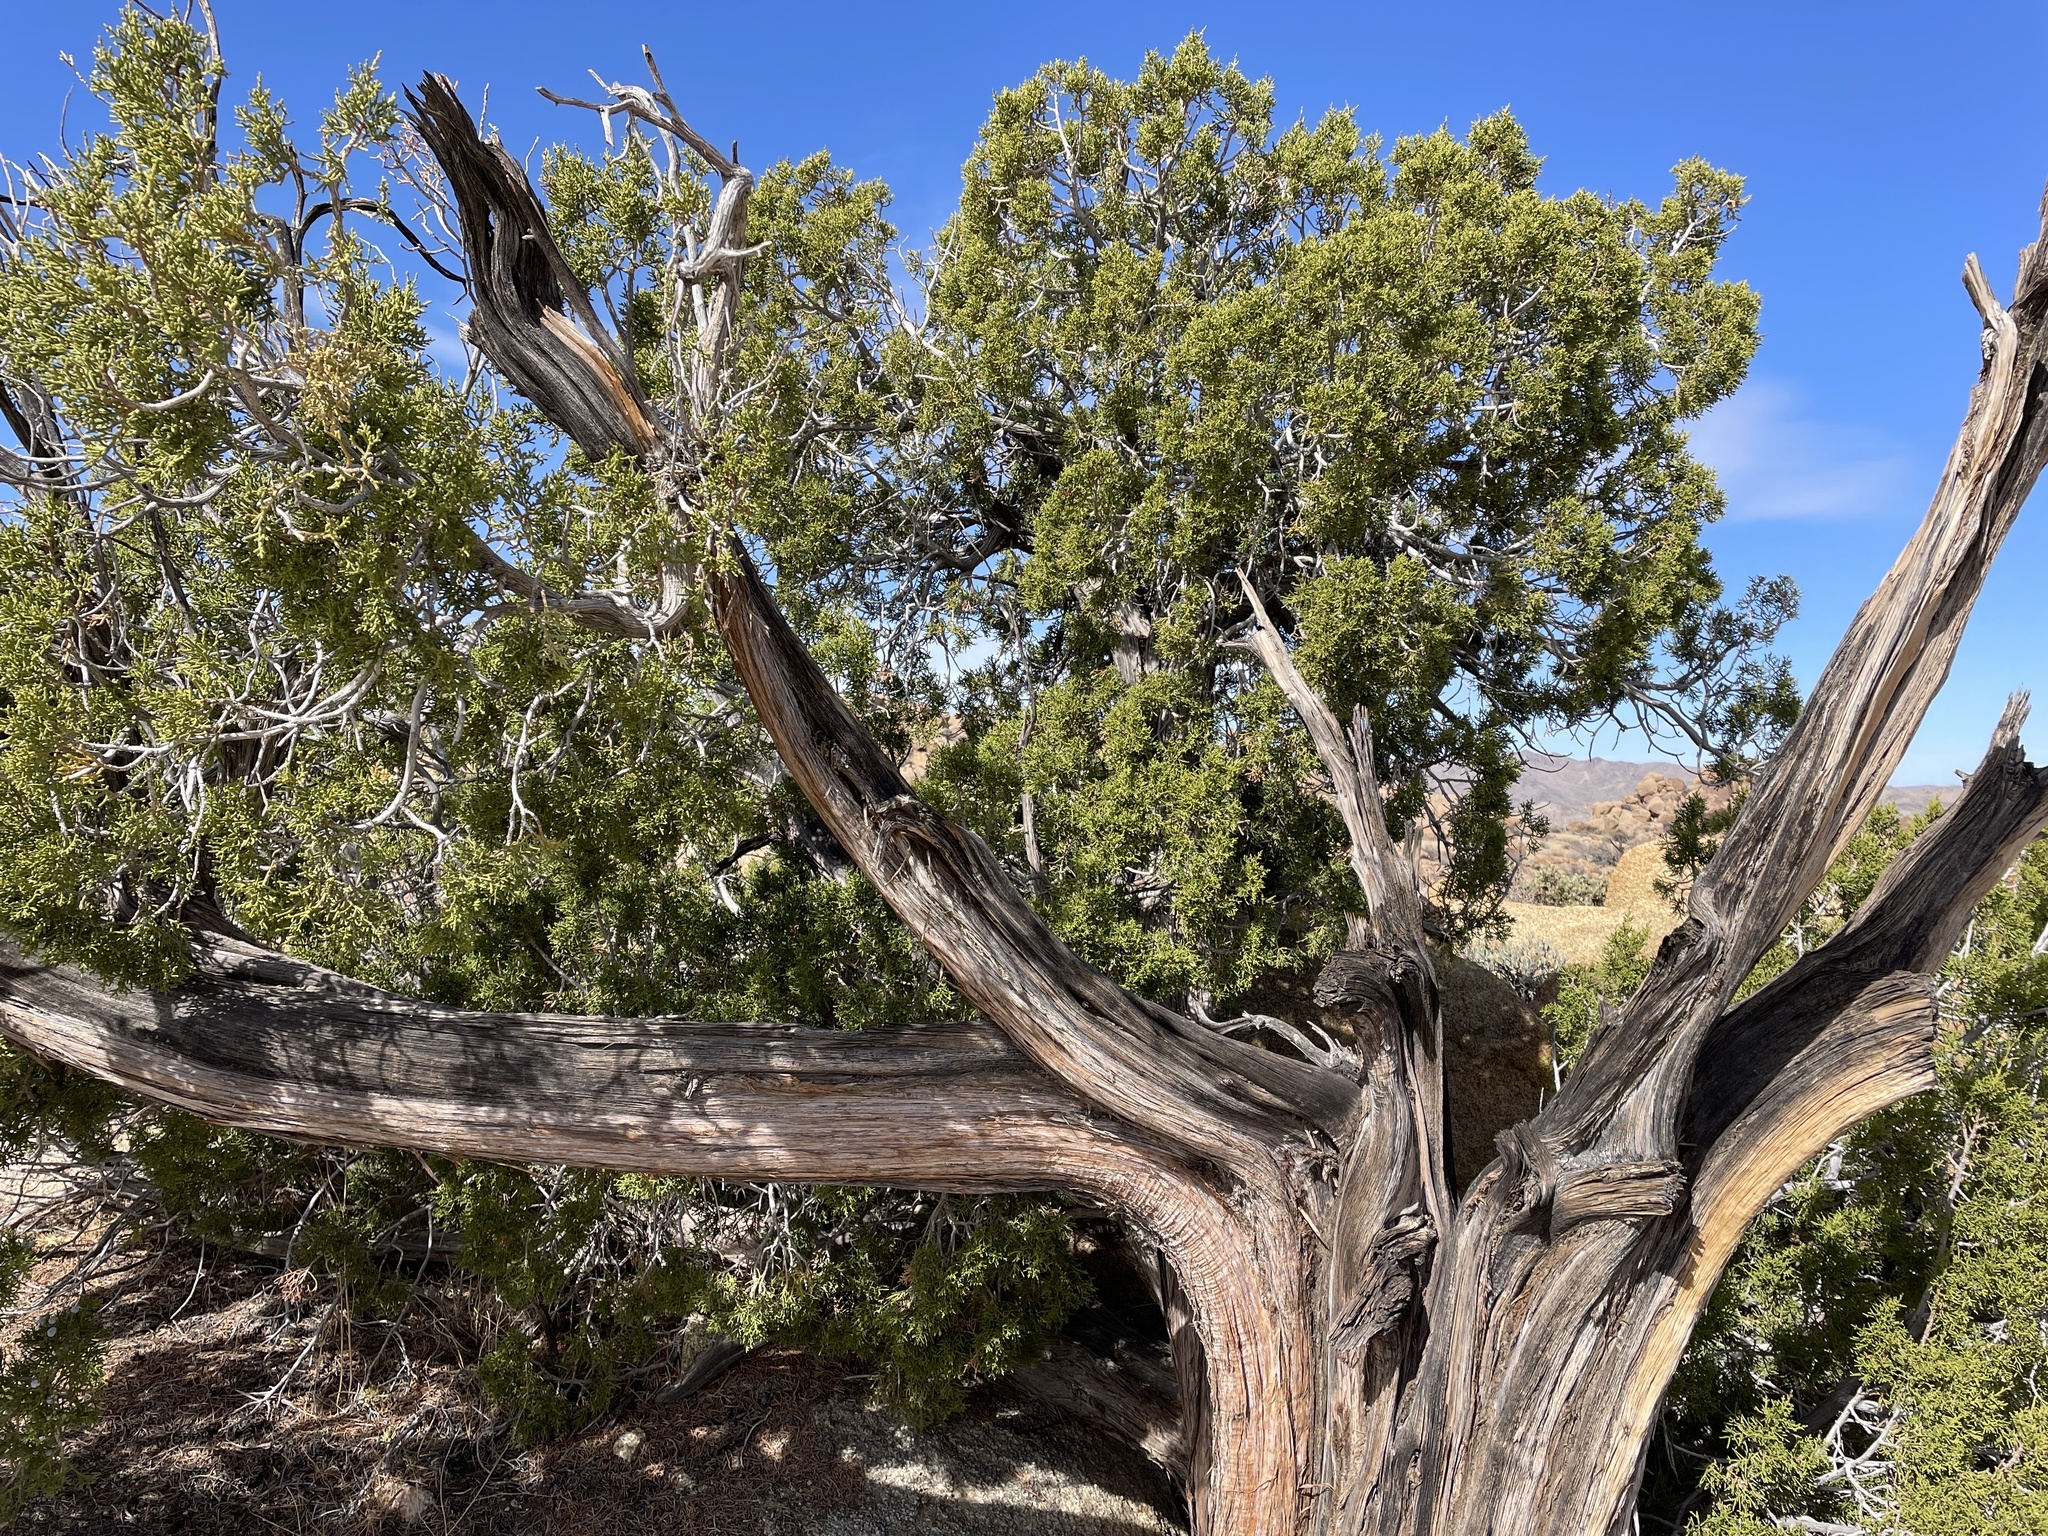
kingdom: Plantae
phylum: Tracheophyta
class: Pinopsida
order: Pinales
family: Cupressaceae
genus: Juniperus
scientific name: Juniperus californica
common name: California juniper
